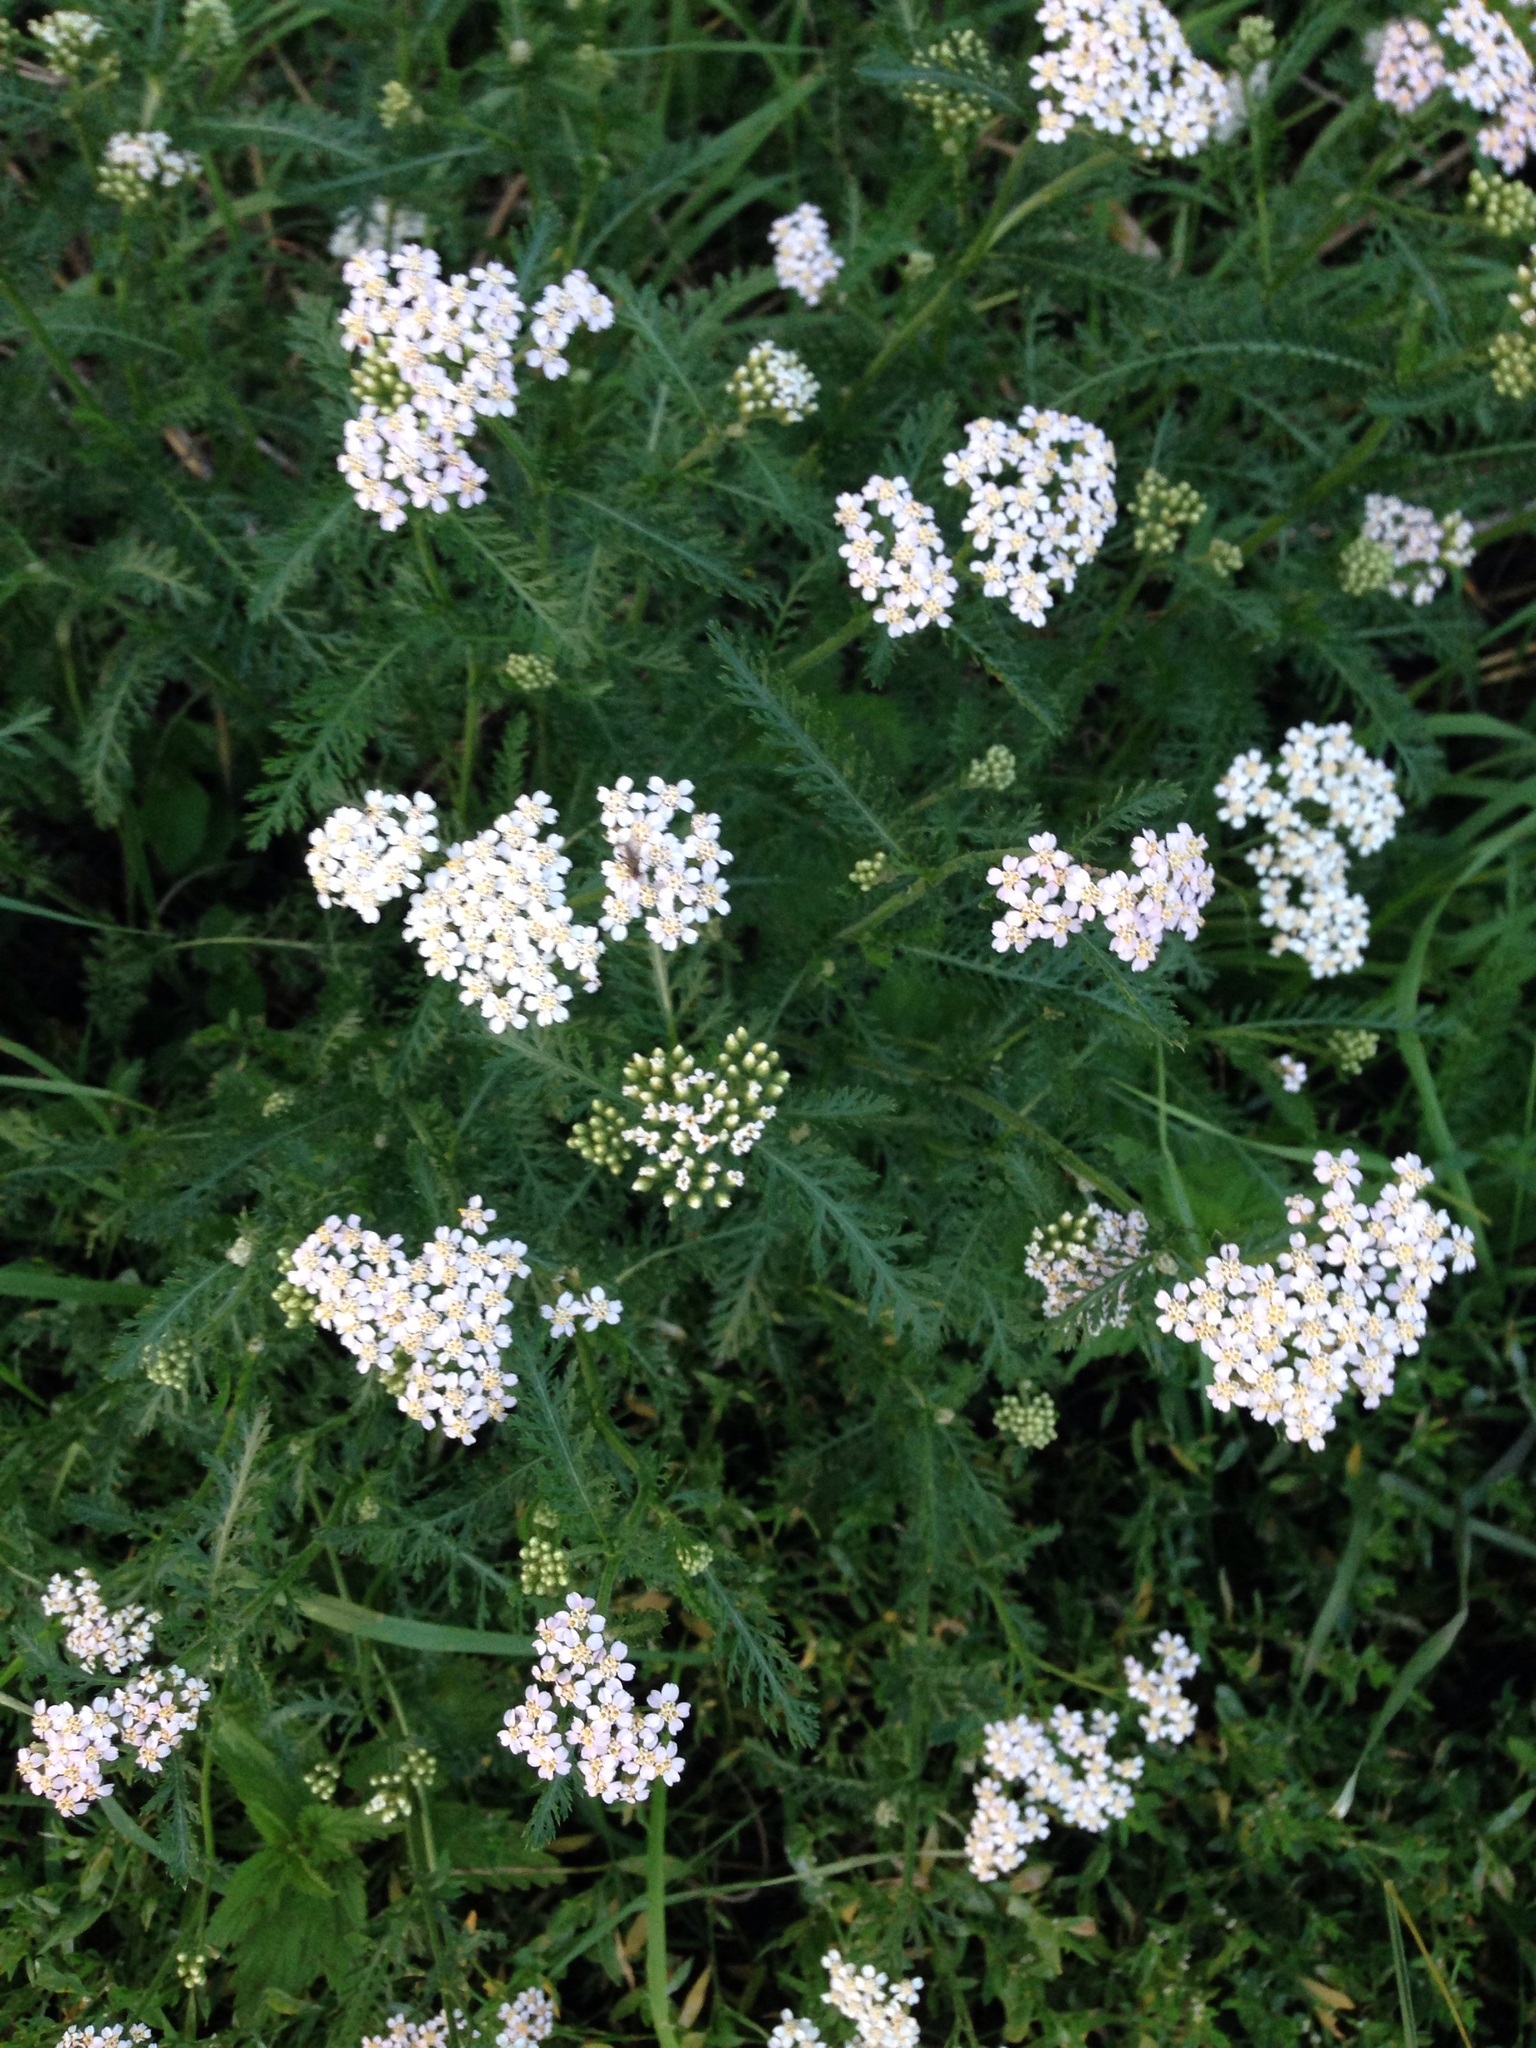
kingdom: Plantae
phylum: Tracheophyta
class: Magnoliopsida
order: Asterales
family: Asteraceae
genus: Achillea
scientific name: Achillea millefolium
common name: Yarrow
